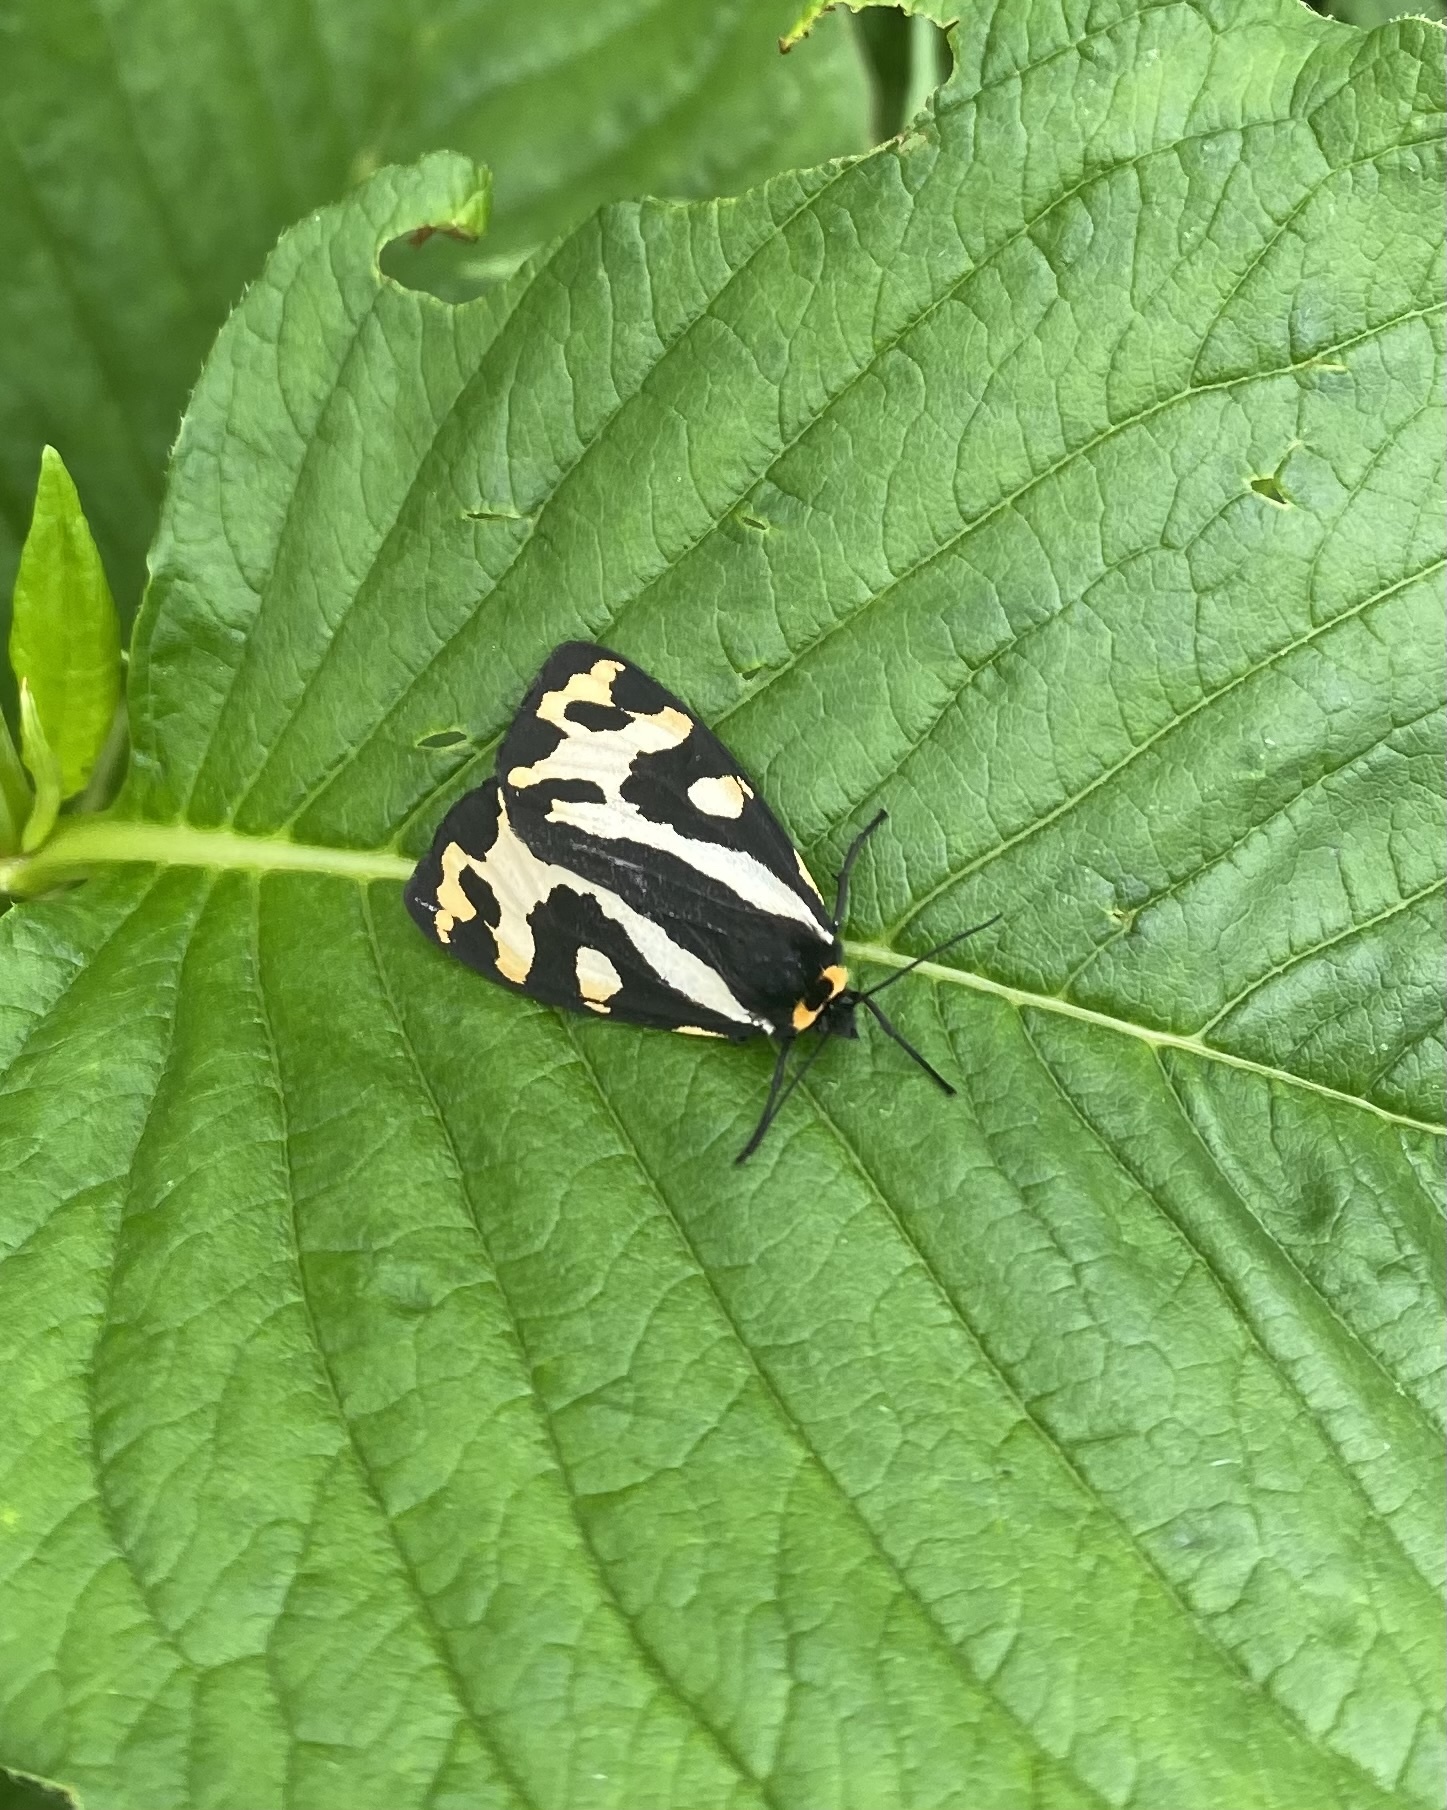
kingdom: Animalia
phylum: Arthropoda
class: Insecta
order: Lepidoptera
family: Erebidae
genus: Parasemia
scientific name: Parasemia plantaginis
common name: Wood tiger
